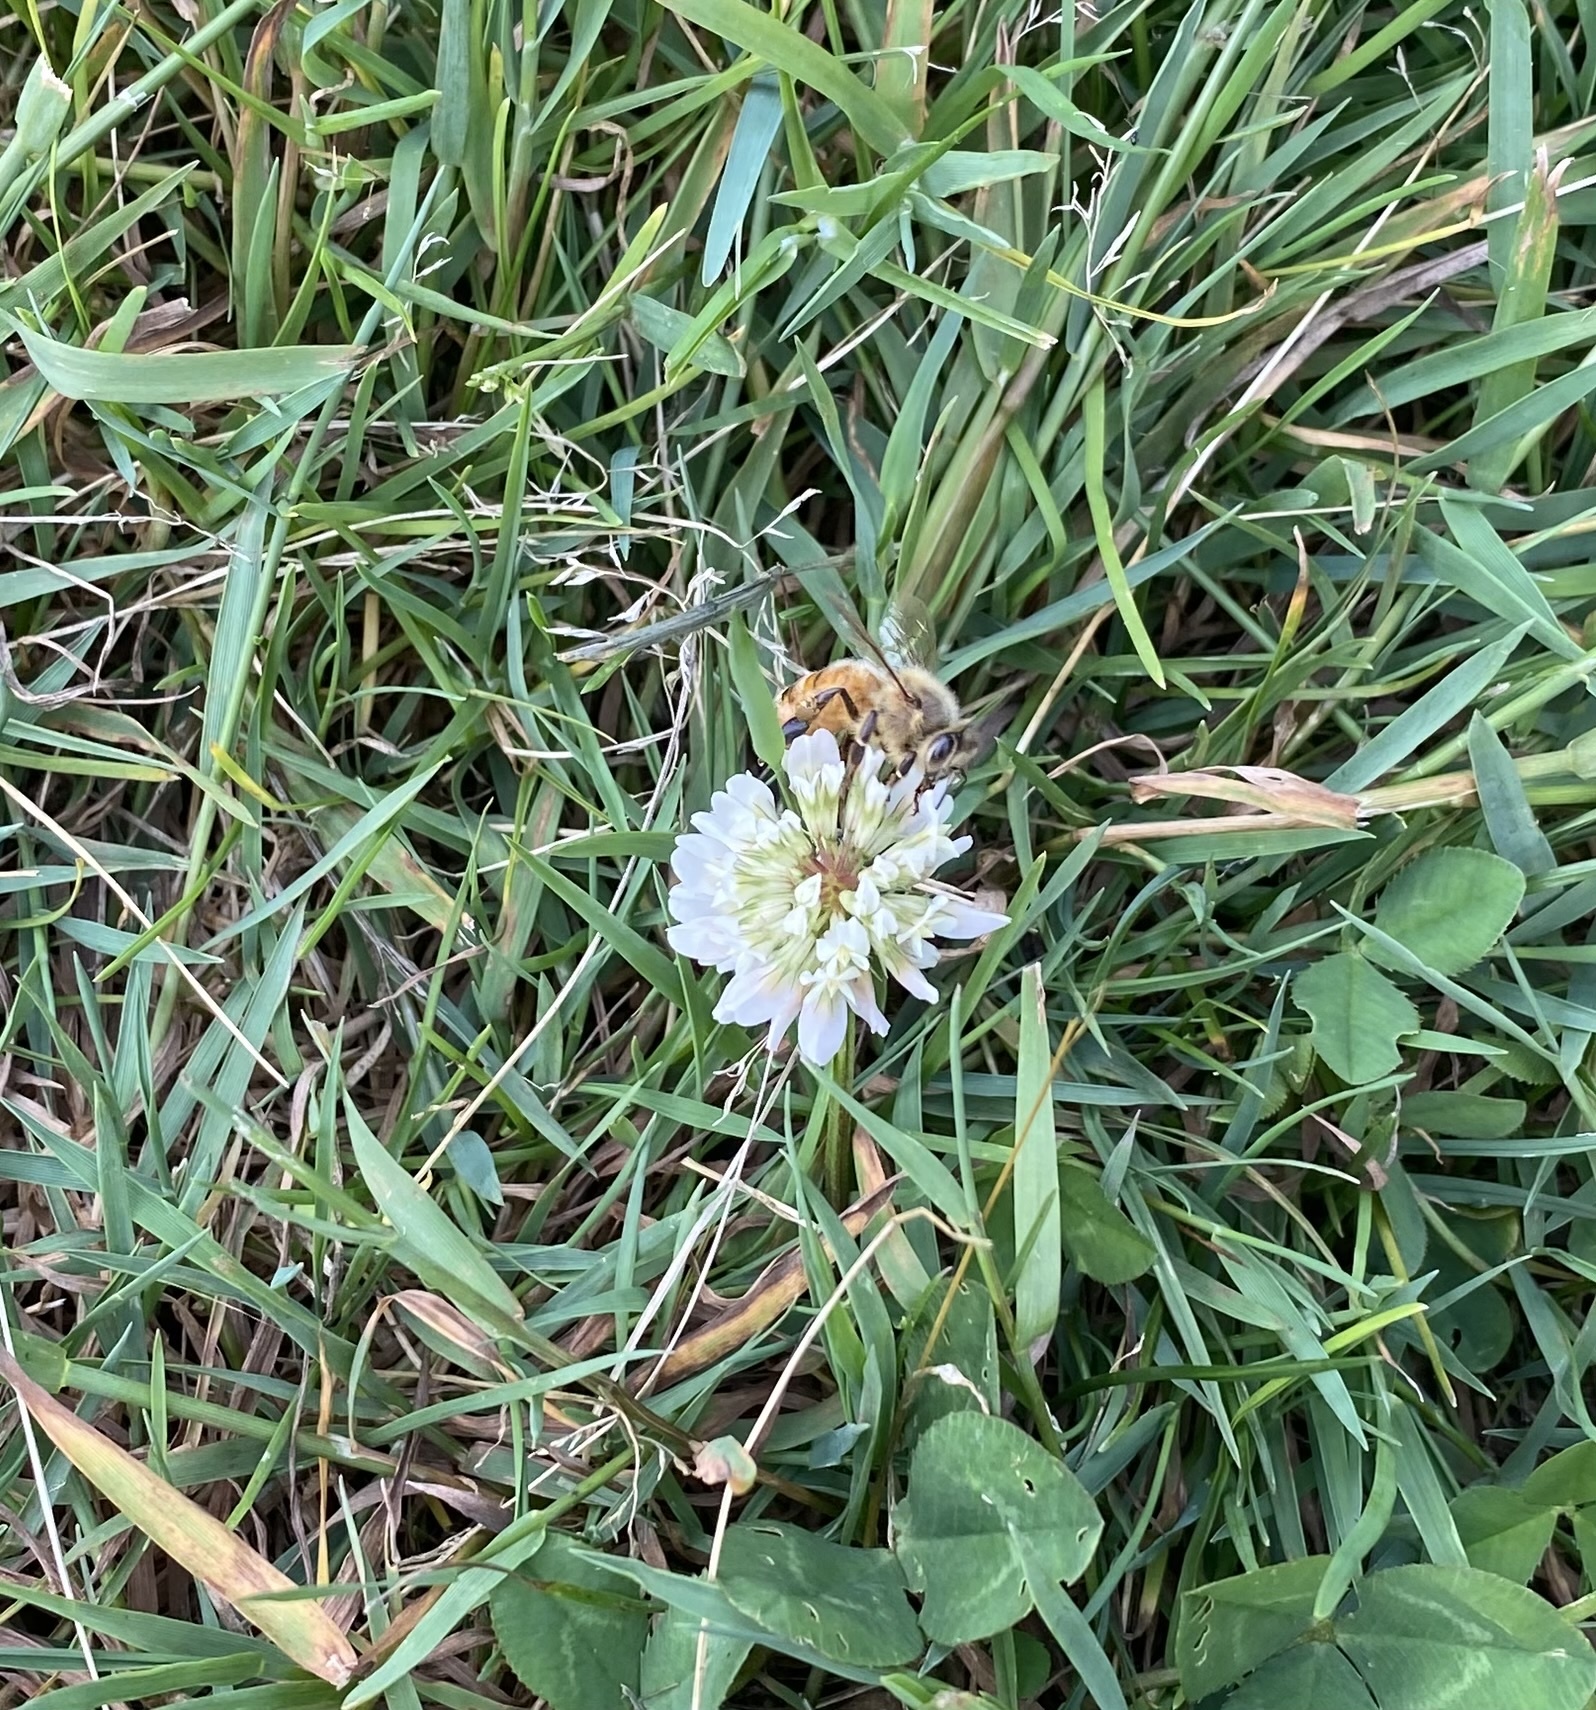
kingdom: Animalia
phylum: Arthropoda
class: Insecta
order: Hymenoptera
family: Apidae
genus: Apis
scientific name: Apis mellifera
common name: Honey bee
